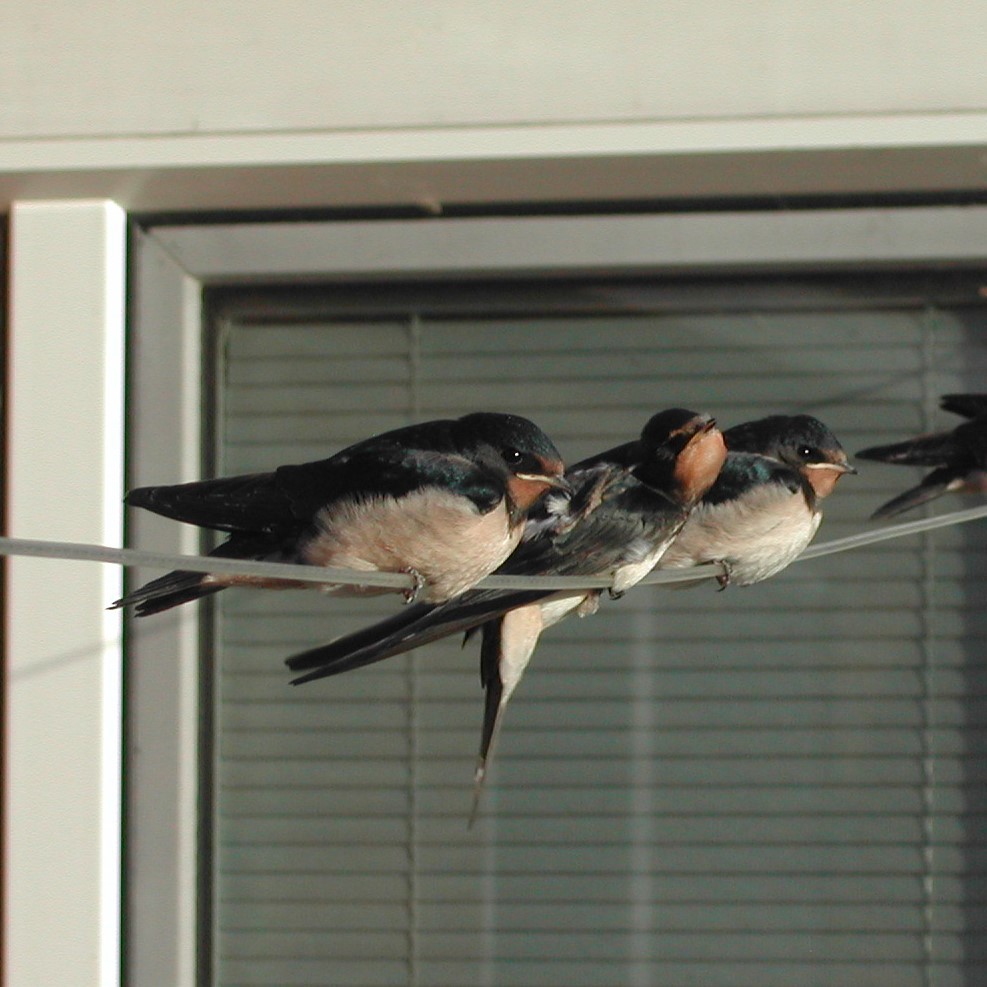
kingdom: Animalia
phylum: Chordata
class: Aves
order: Passeriformes
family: Hirundinidae
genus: Hirundo
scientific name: Hirundo rustica
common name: Barn swallow
